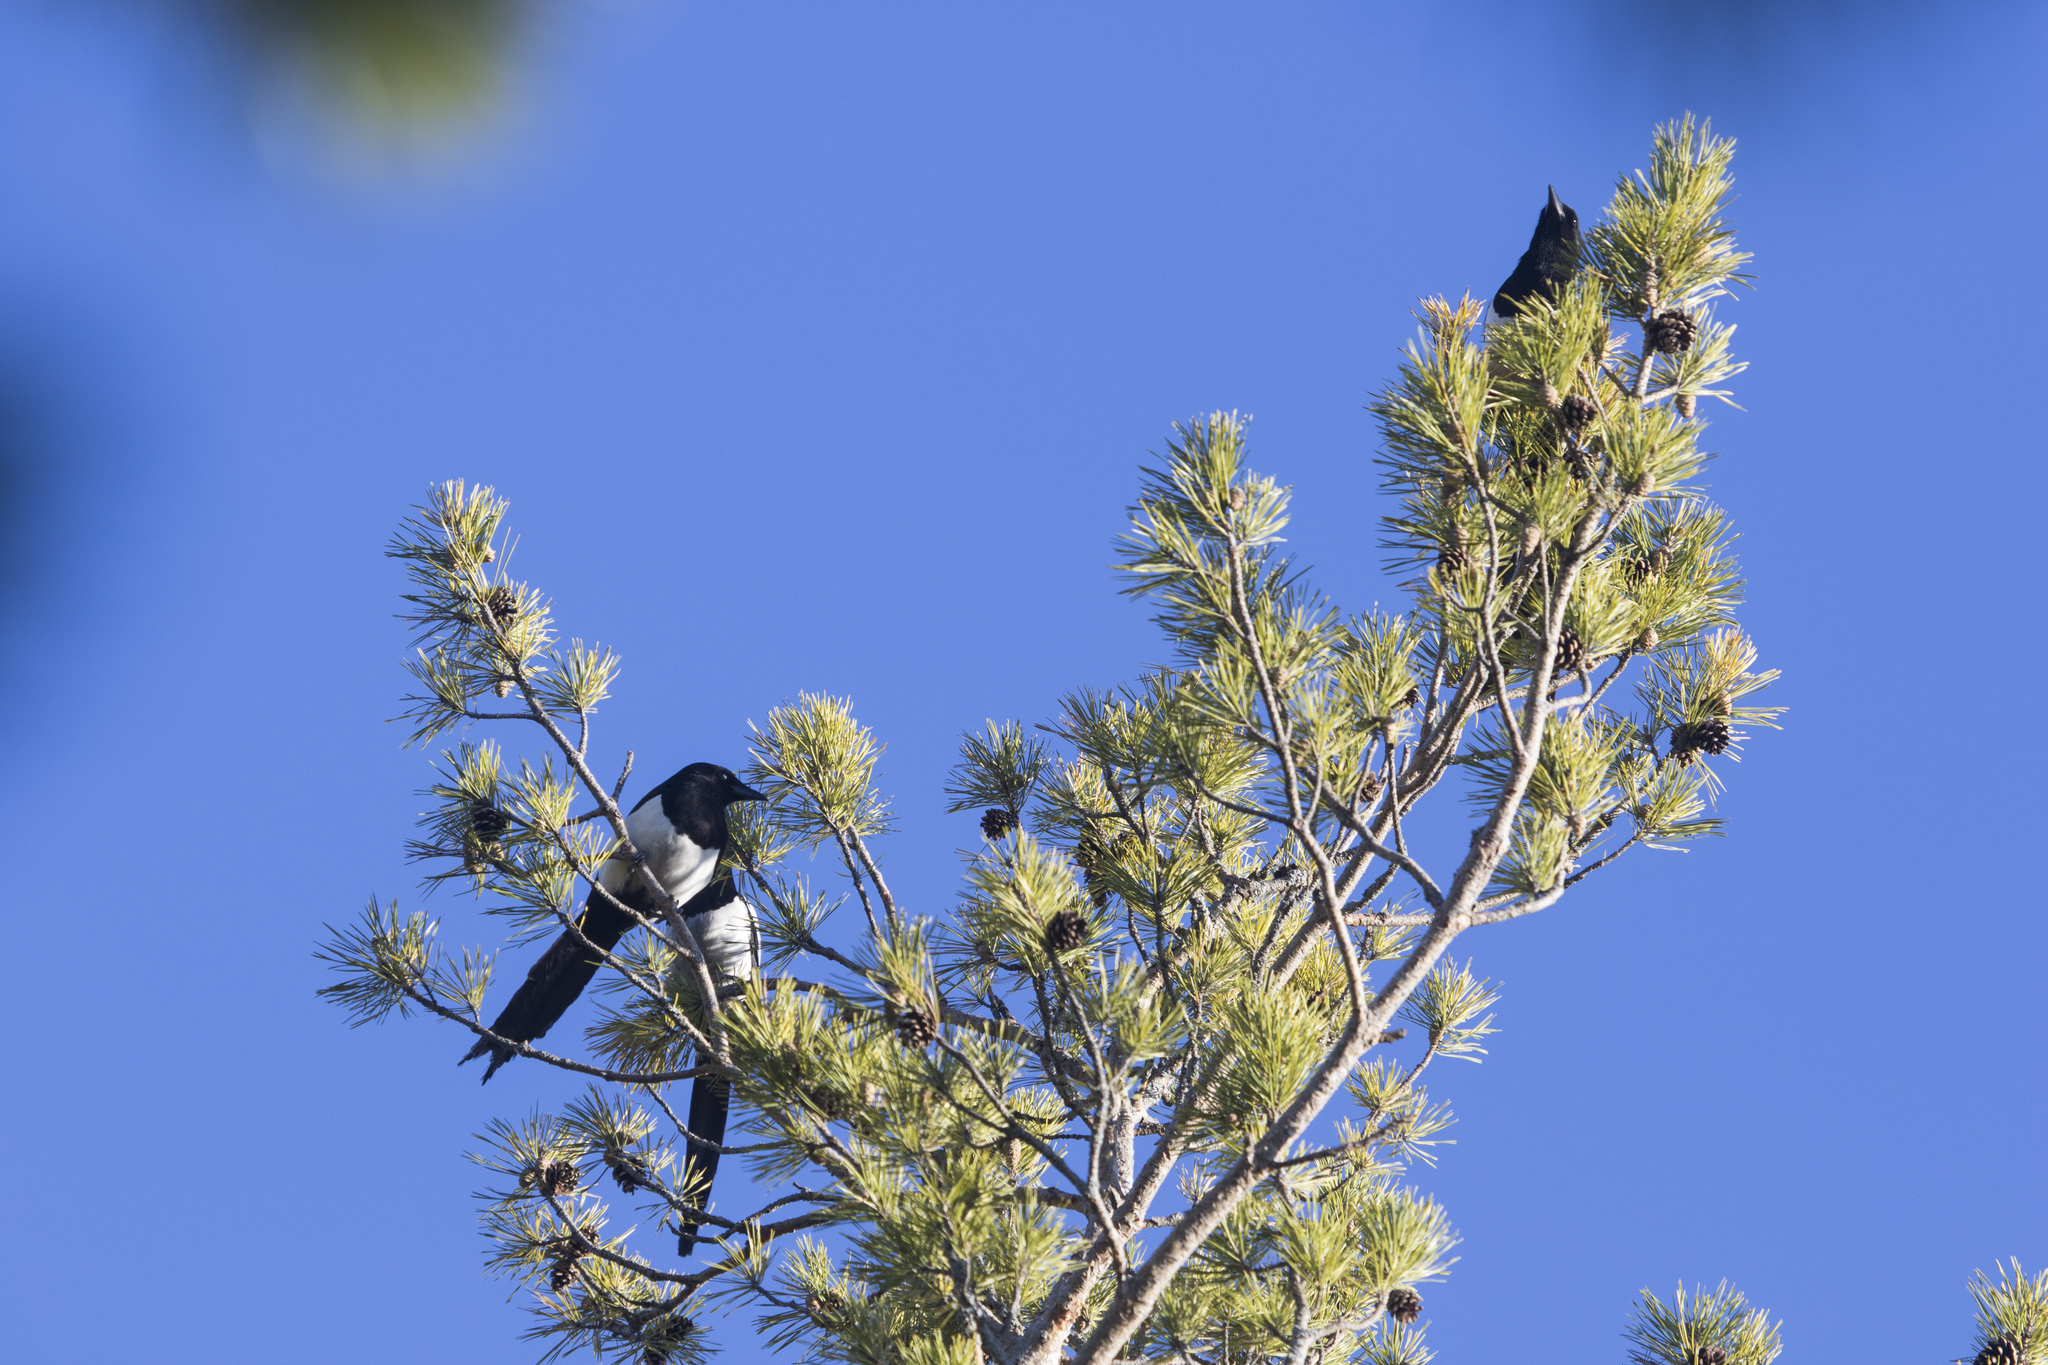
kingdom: Animalia
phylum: Chordata
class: Aves
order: Passeriformes
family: Corvidae
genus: Pica
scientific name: Pica pica
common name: Eurasian magpie
